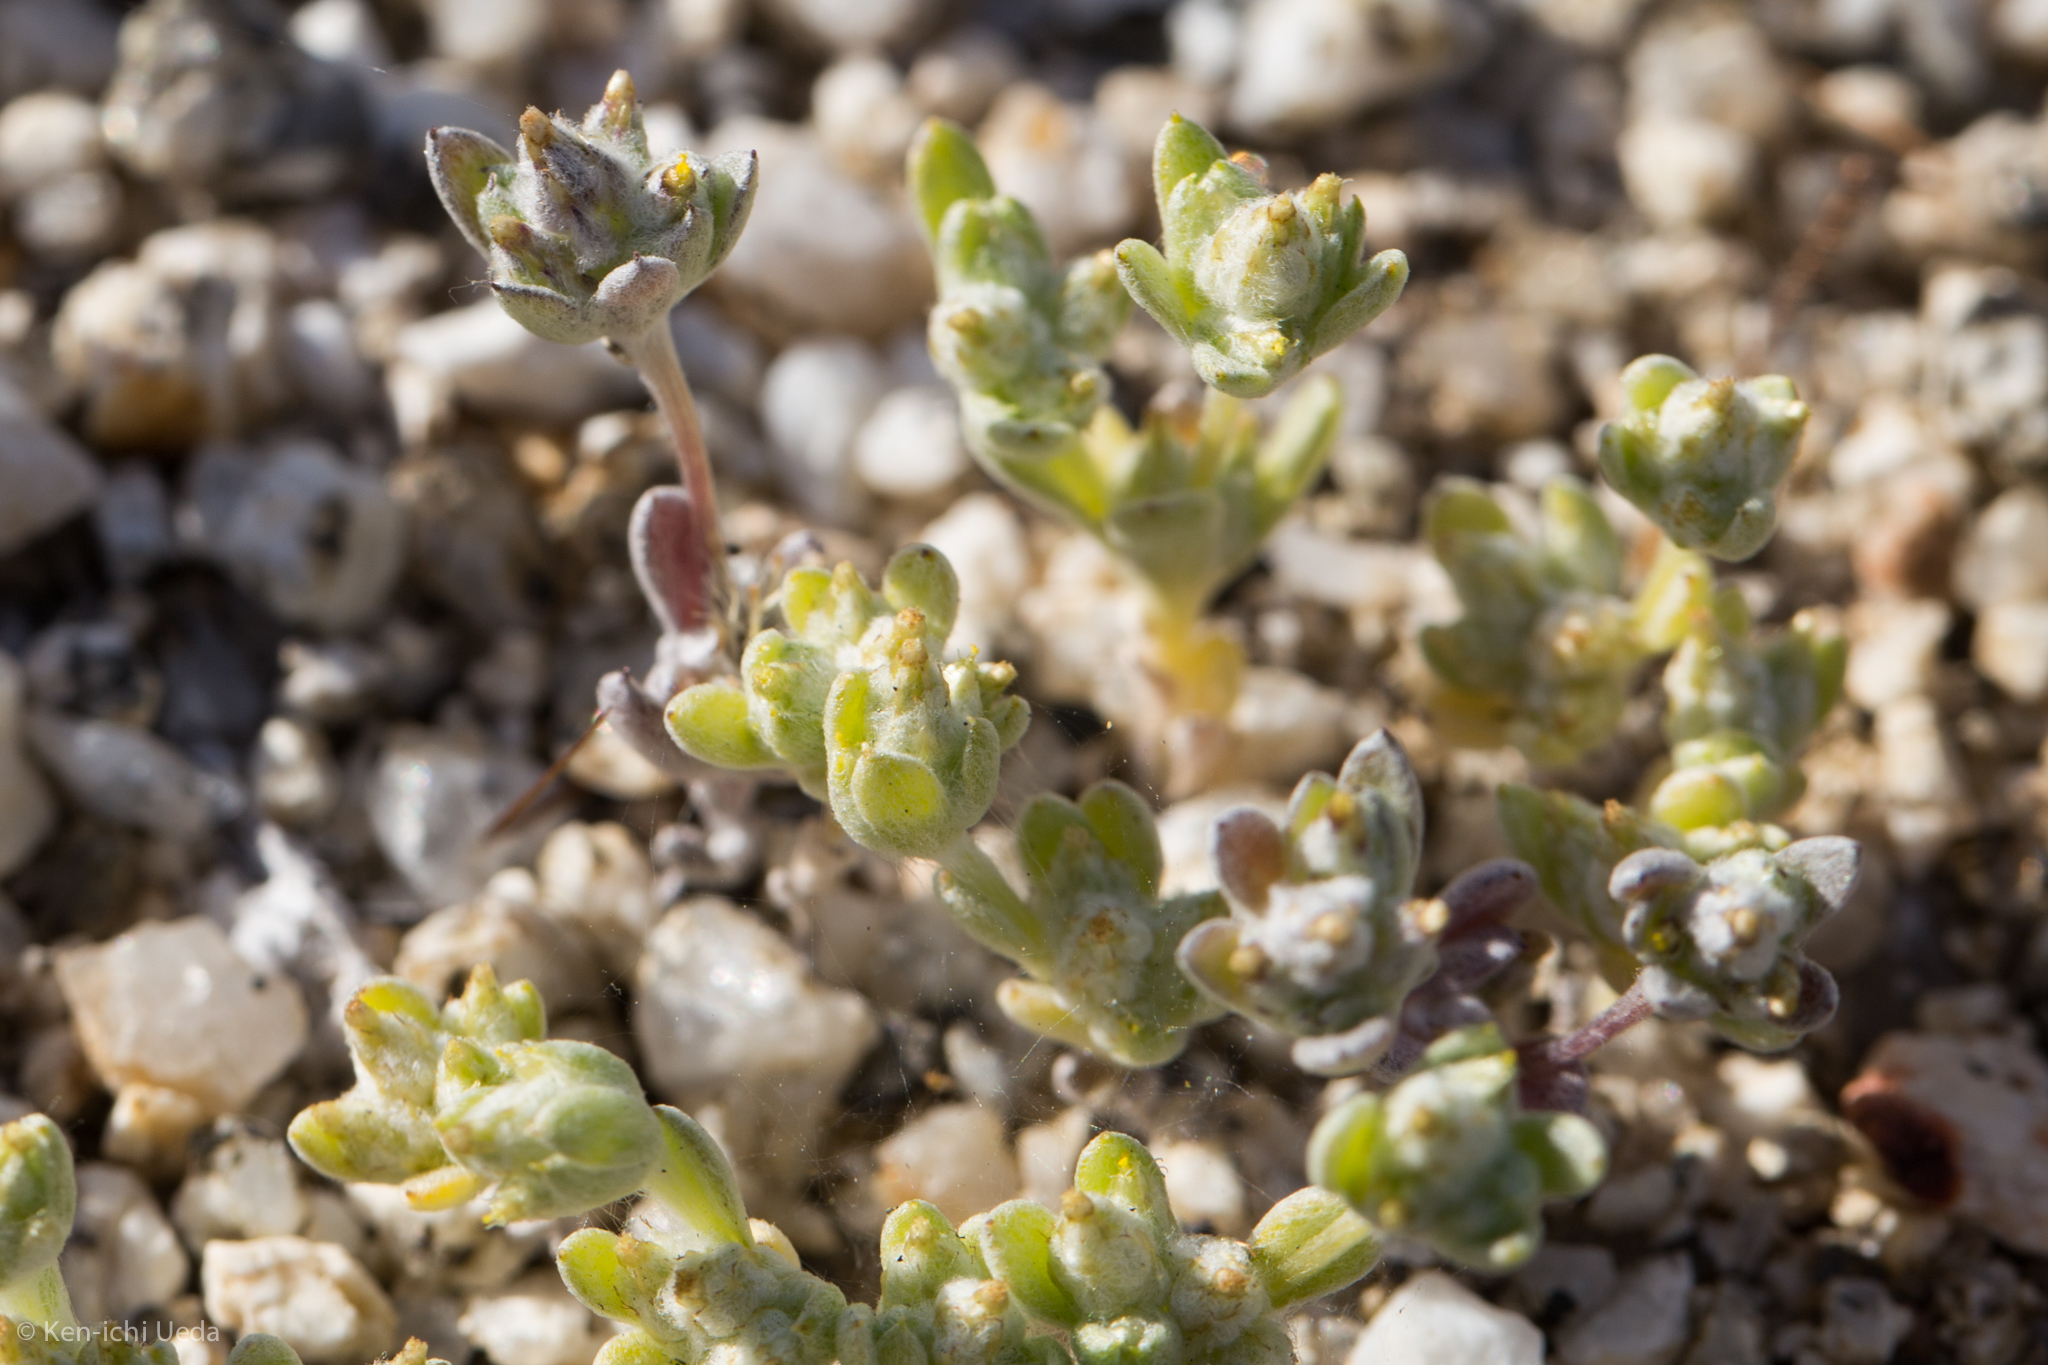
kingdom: Plantae
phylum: Tracheophyta
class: Magnoliopsida
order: Asterales
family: Asteraceae
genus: Logfia
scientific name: Logfia depressa
